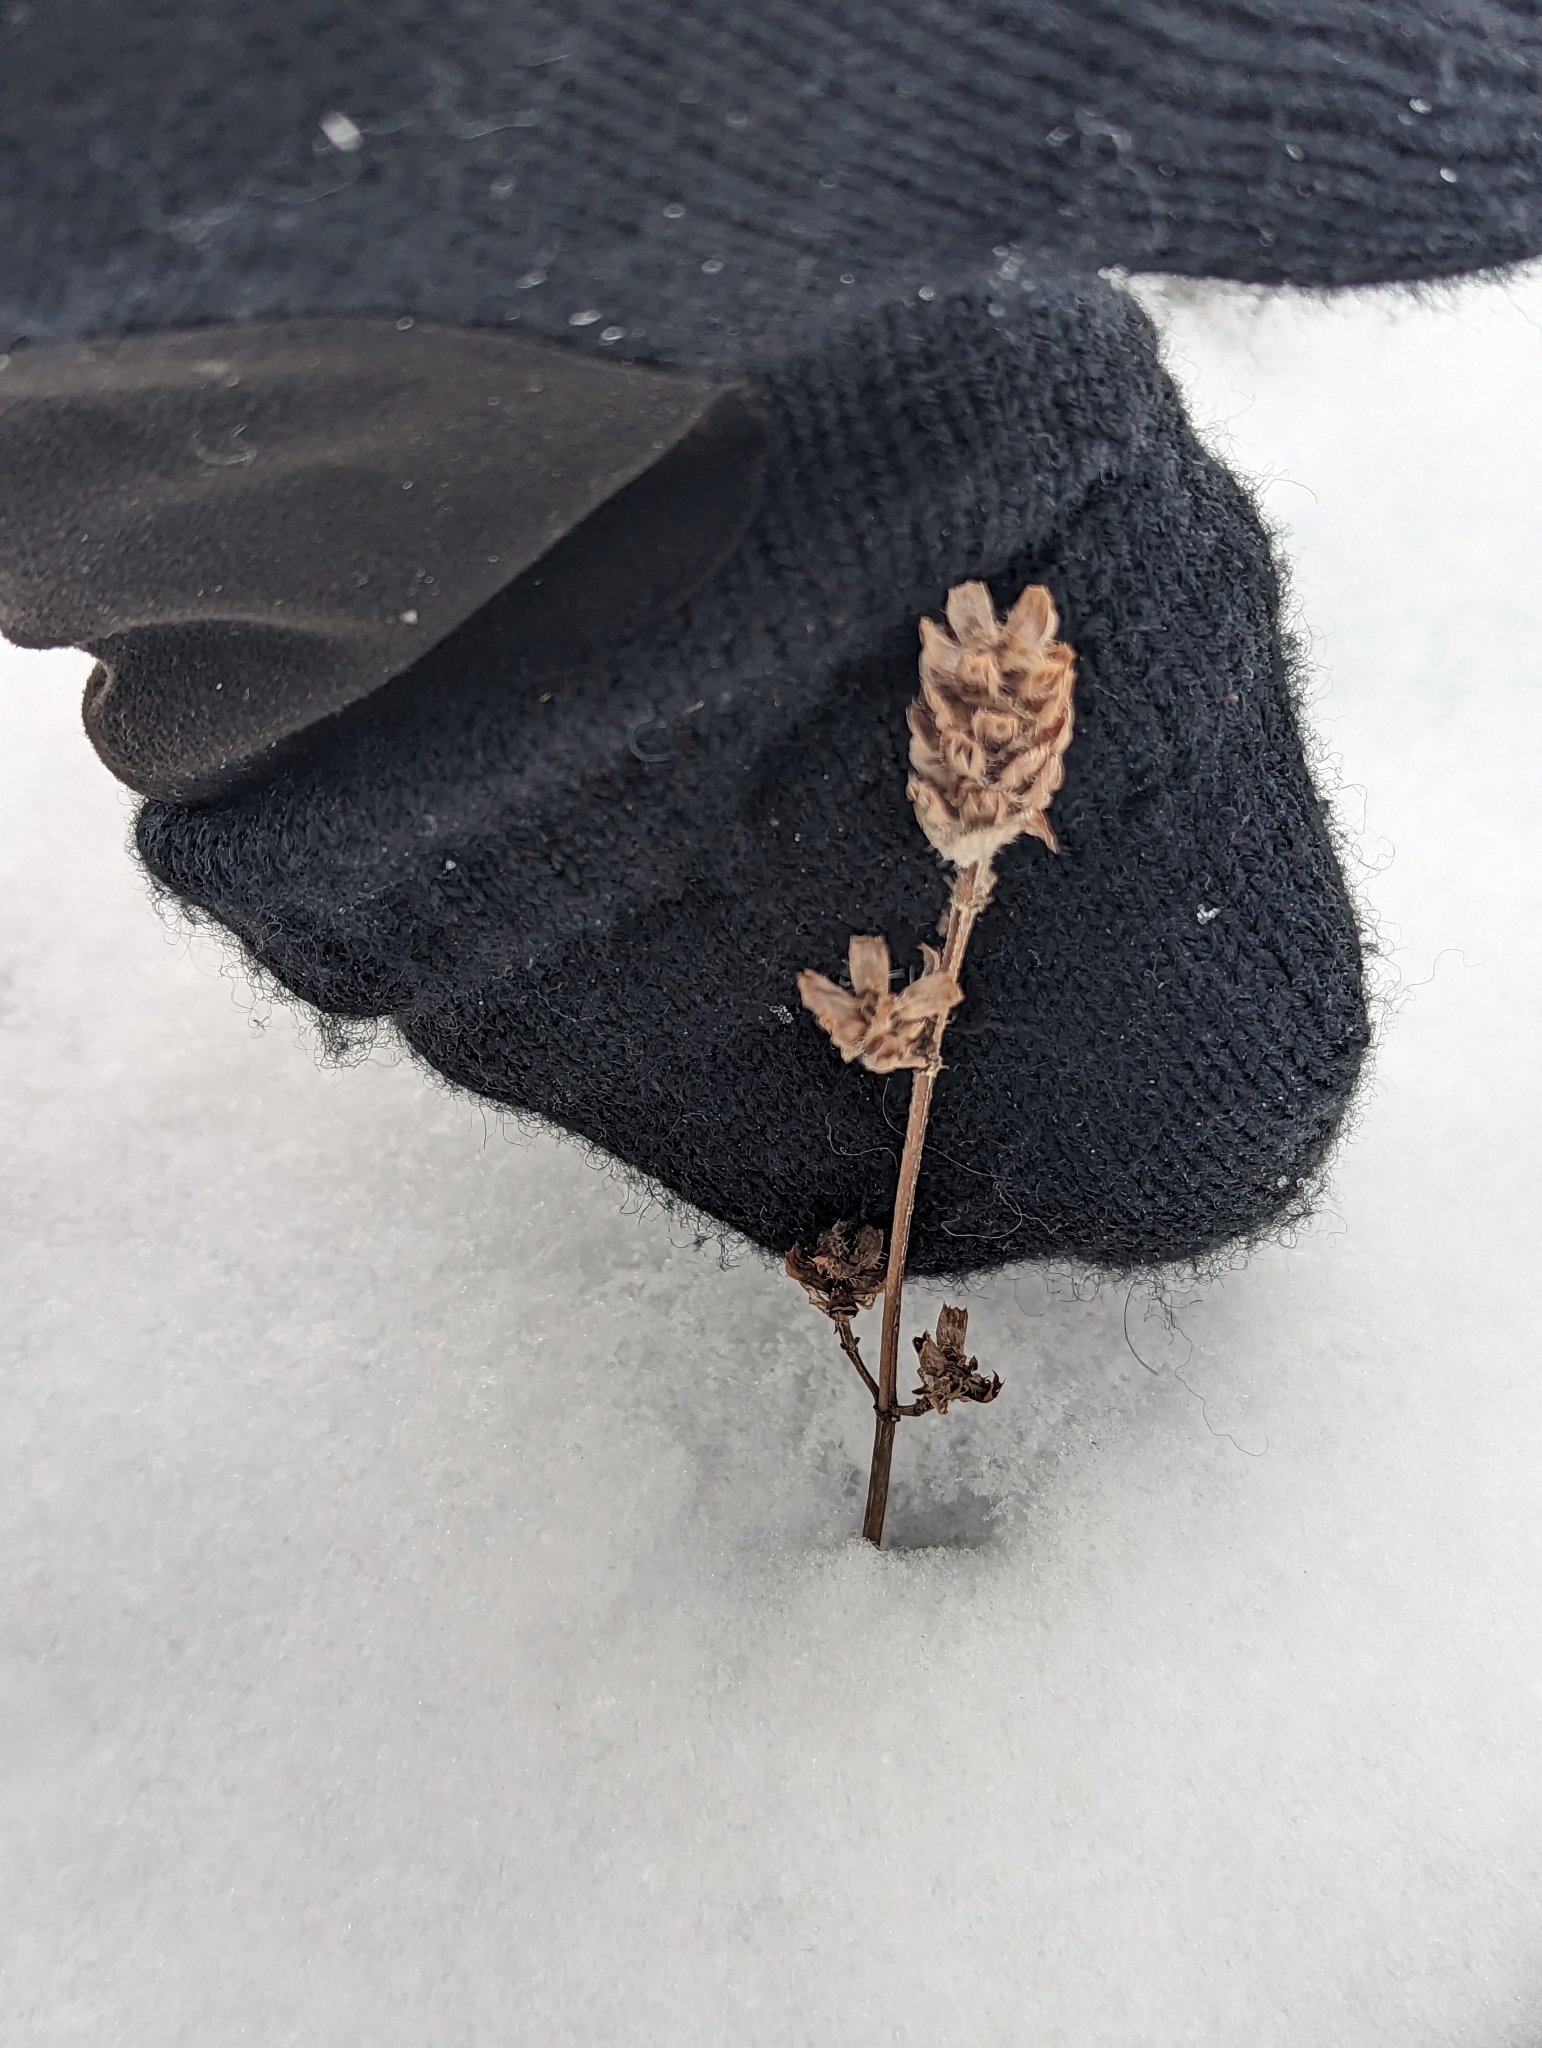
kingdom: Plantae
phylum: Tracheophyta
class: Magnoliopsida
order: Lamiales
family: Lamiaceae
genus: Prunella
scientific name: Prunella vulgaris
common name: Heal-all
